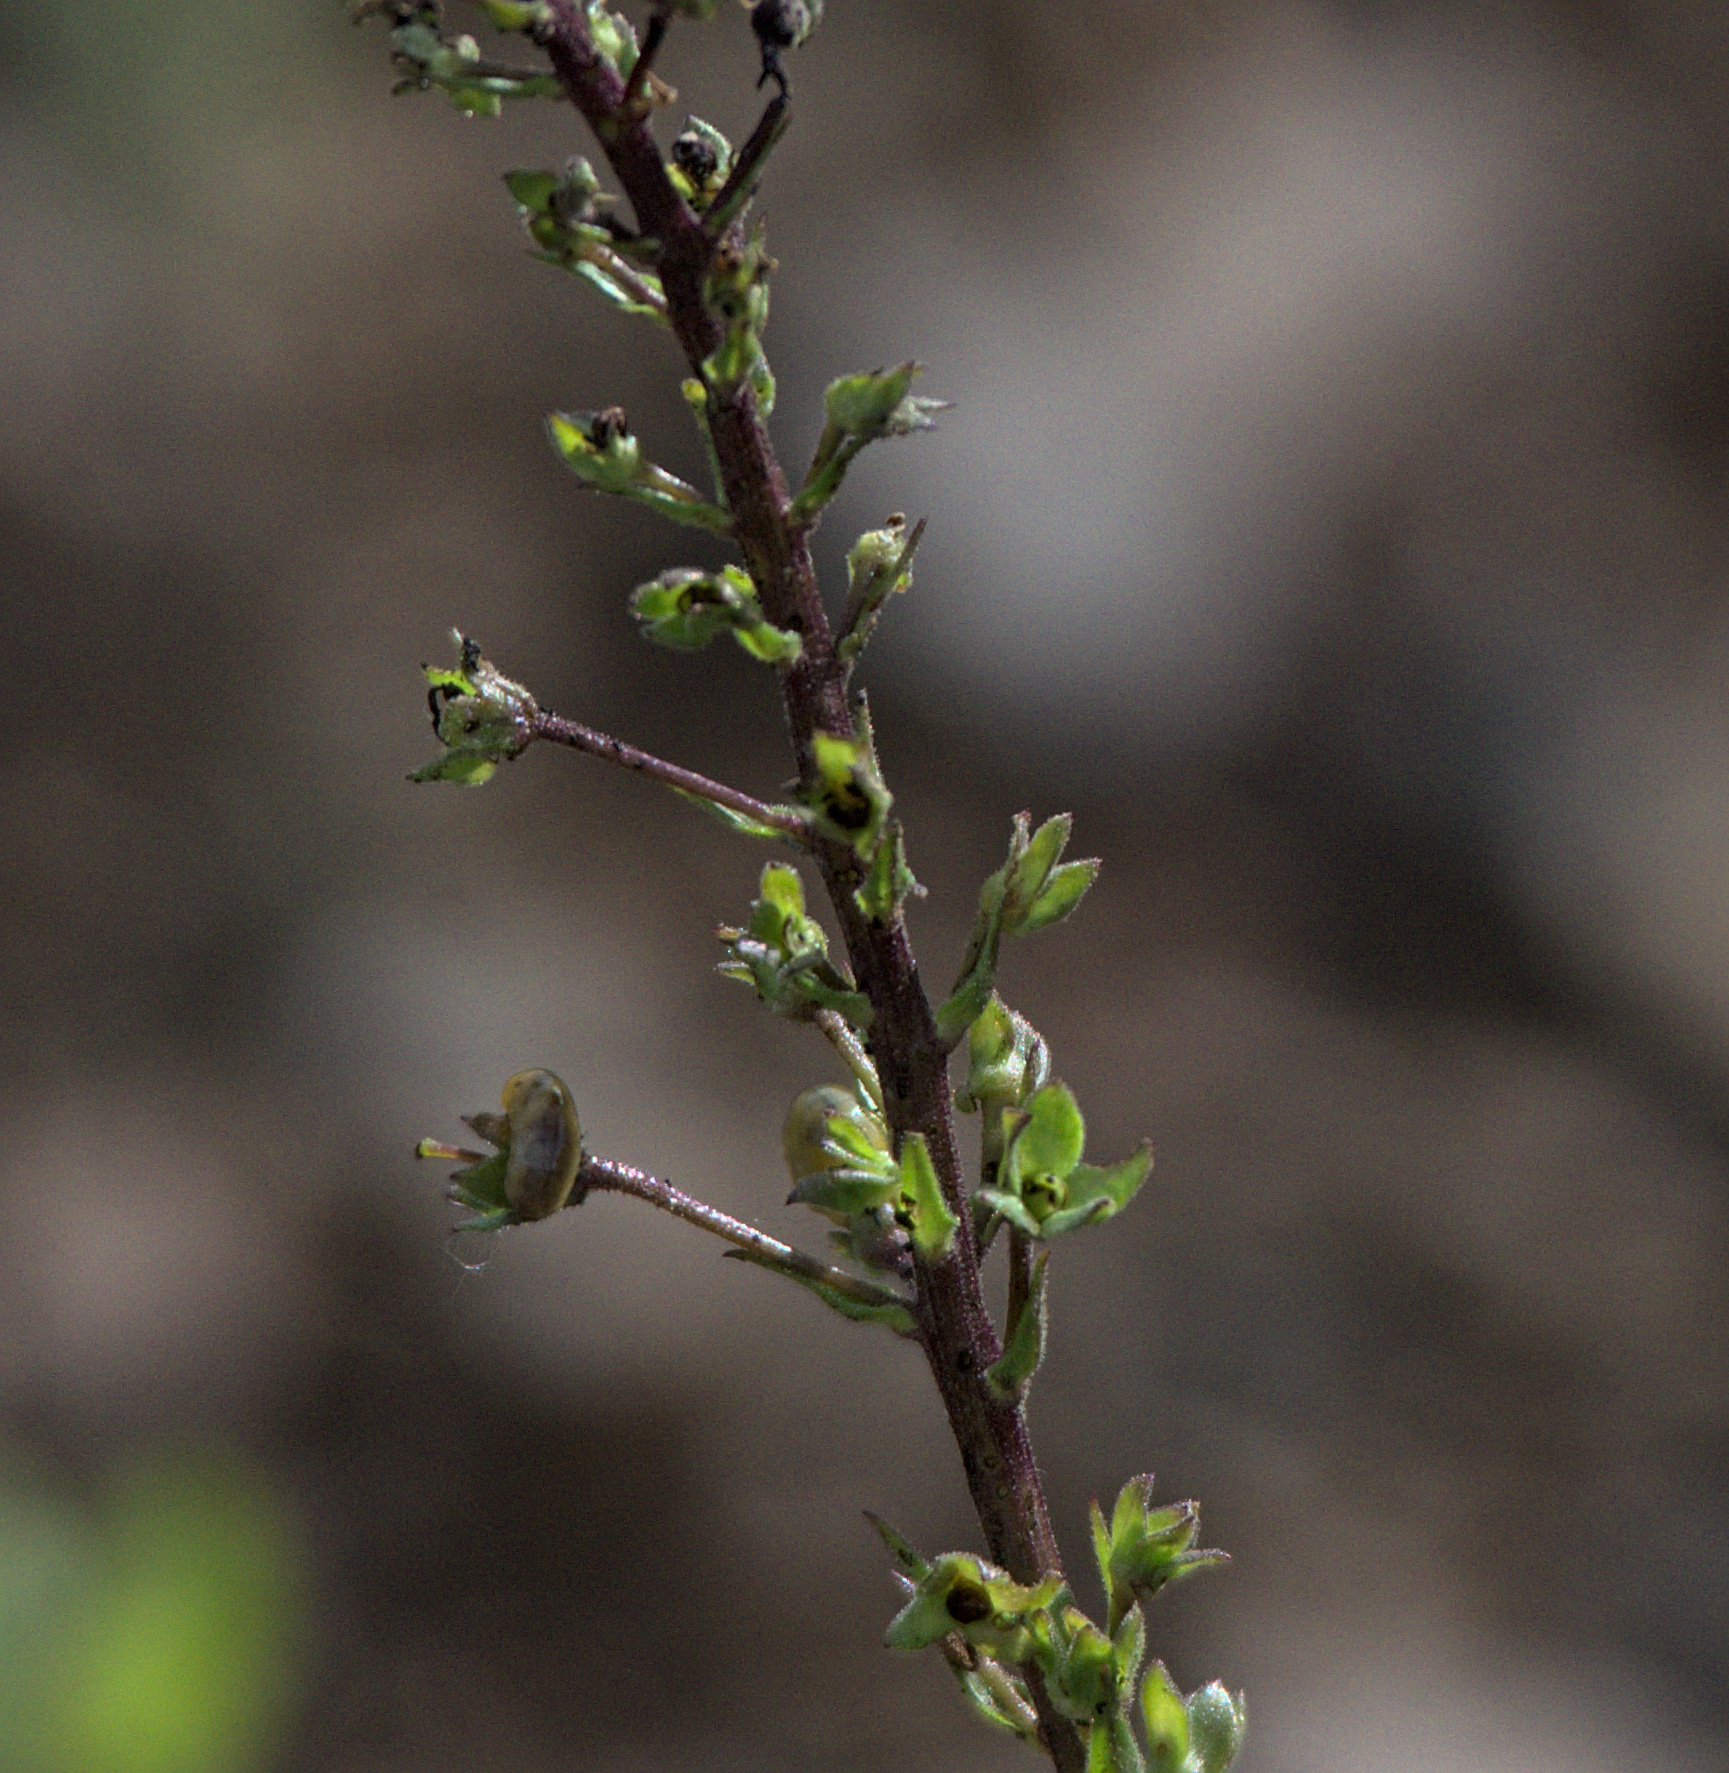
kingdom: Plantae
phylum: Tracheophyta
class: Magnoliopsida
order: Lamiales
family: Scrophulariaceae
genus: Verbascum
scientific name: Verbascum phoeniceum
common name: Purple mullein
